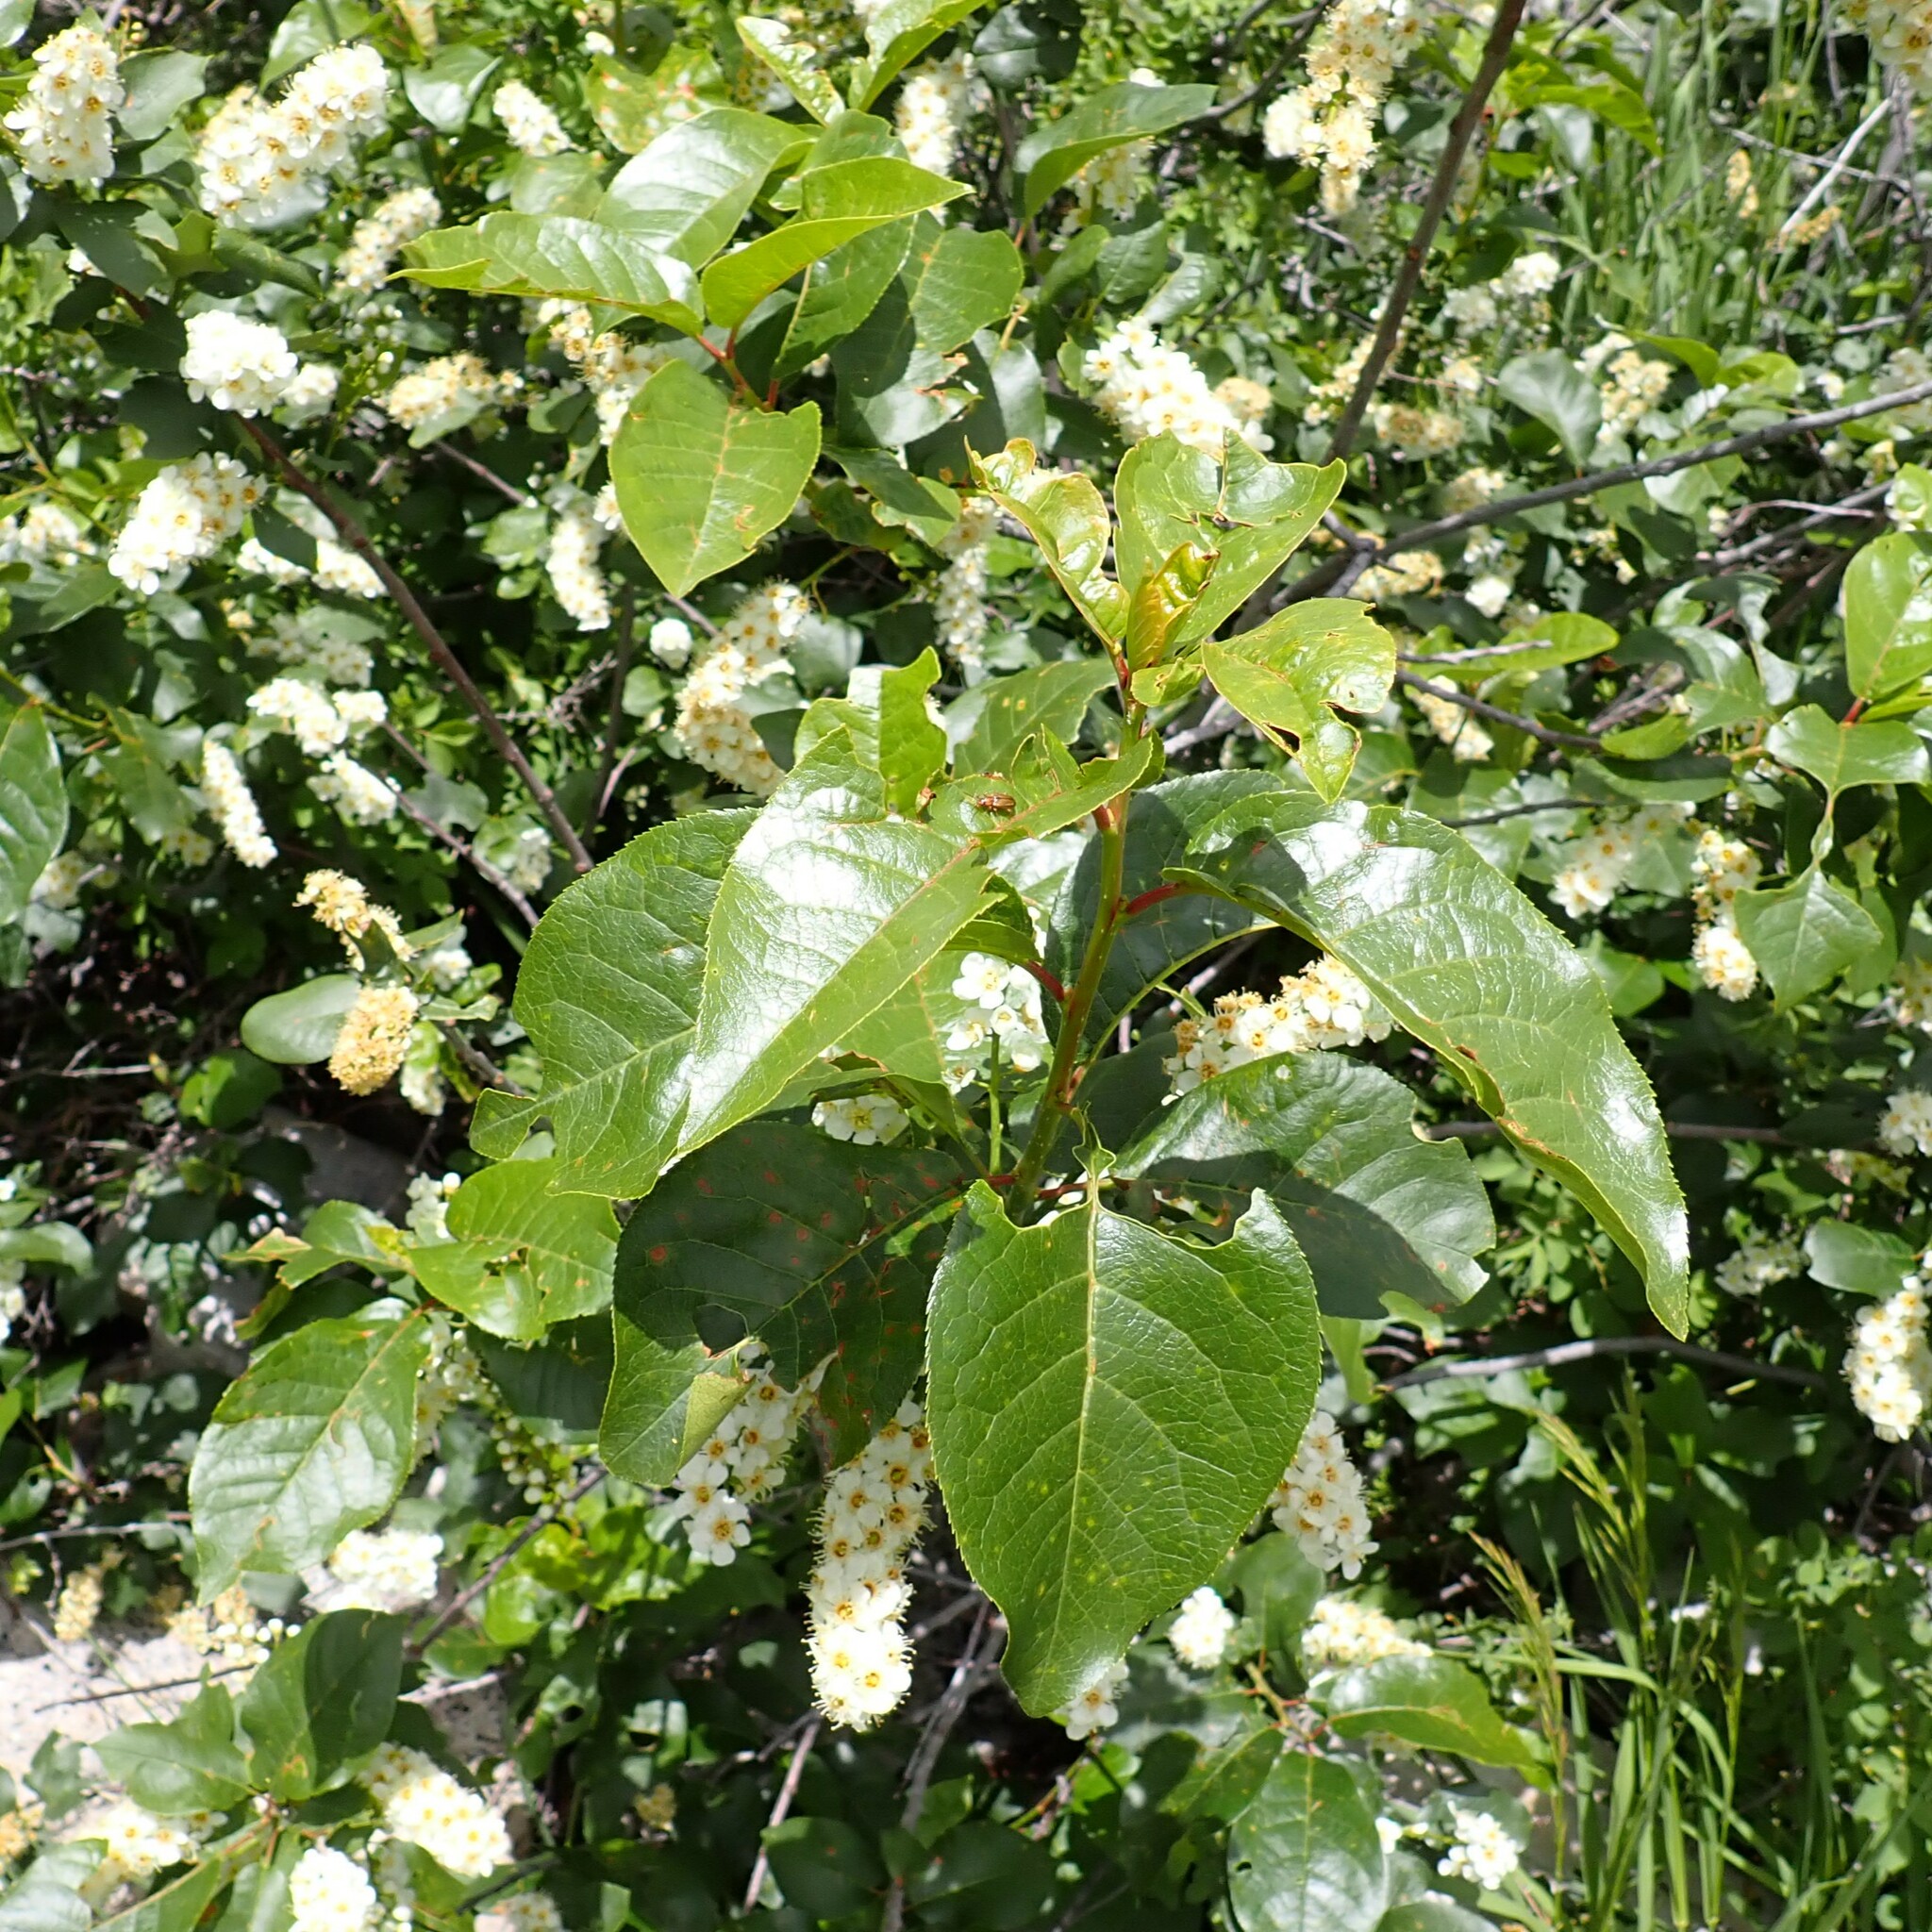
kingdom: Plantae
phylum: Tracheophyta
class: Magnoliopsida
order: Rosales
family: Rosaceae
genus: Prunus
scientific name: Prunus virginiana
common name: Chokecherry
